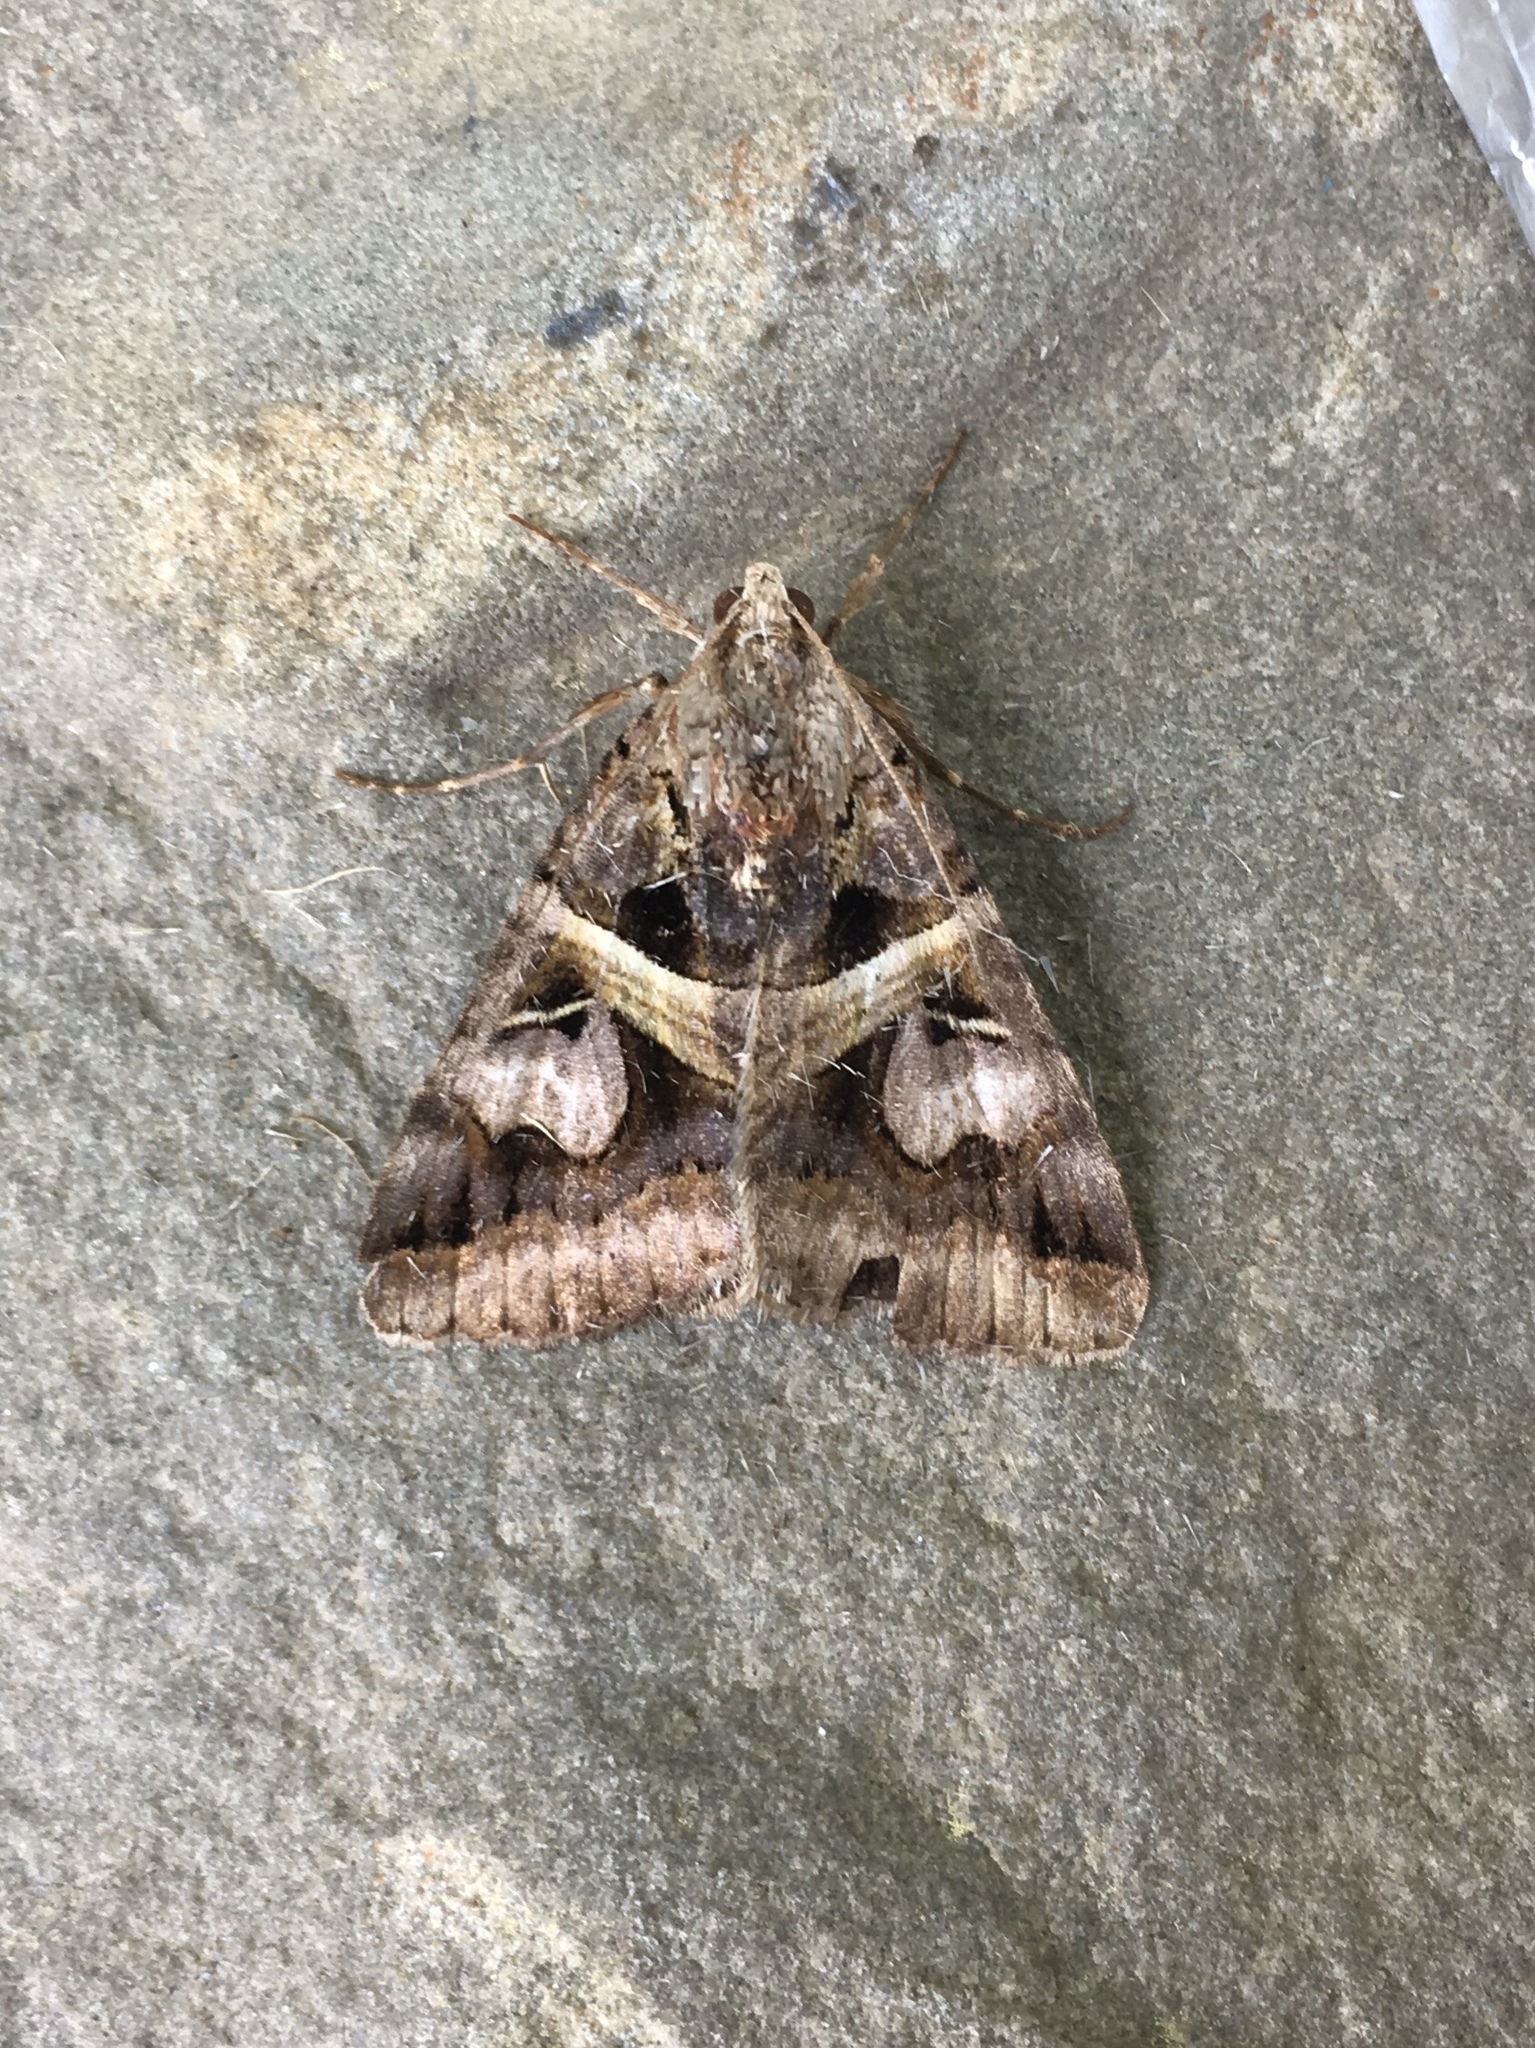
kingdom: Animalia
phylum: Arthropoda
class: Insecta
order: Lepidoptera
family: Erebidae
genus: Drasteria
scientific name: Drasteria grandirena
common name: Figure-seven moth
